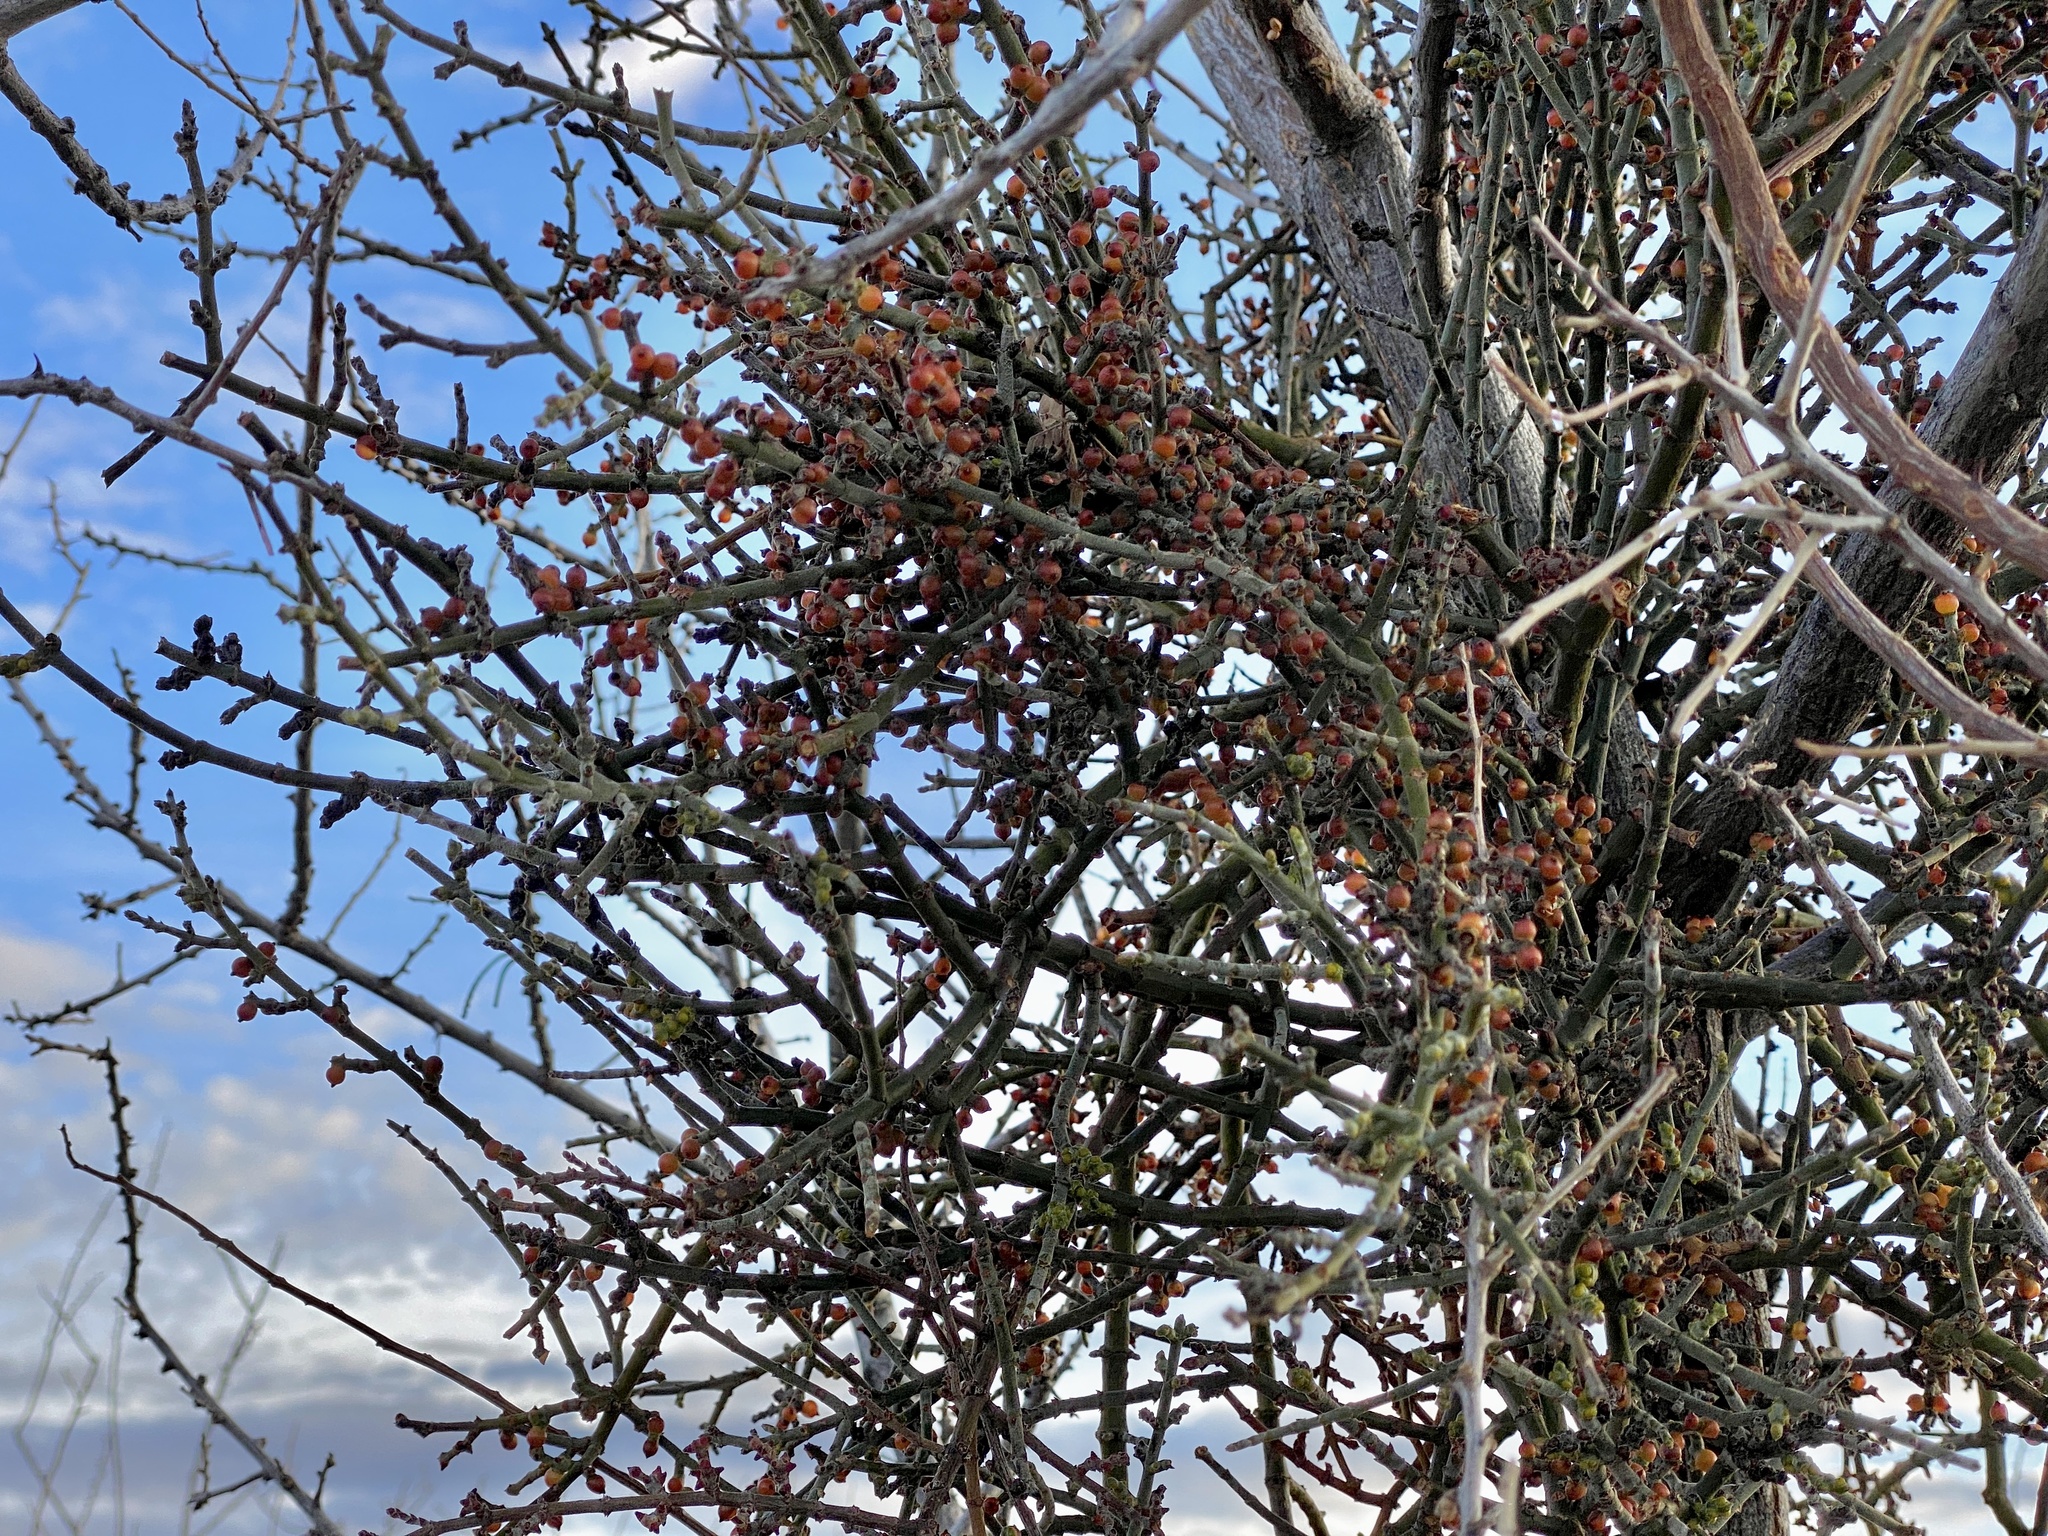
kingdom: Plantae
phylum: Tracheophyta
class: Magnoliopsida
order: Santalales
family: Viscaceae
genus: Phoradendron
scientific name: Phoradendron californicum
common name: Acacia mistletoe
